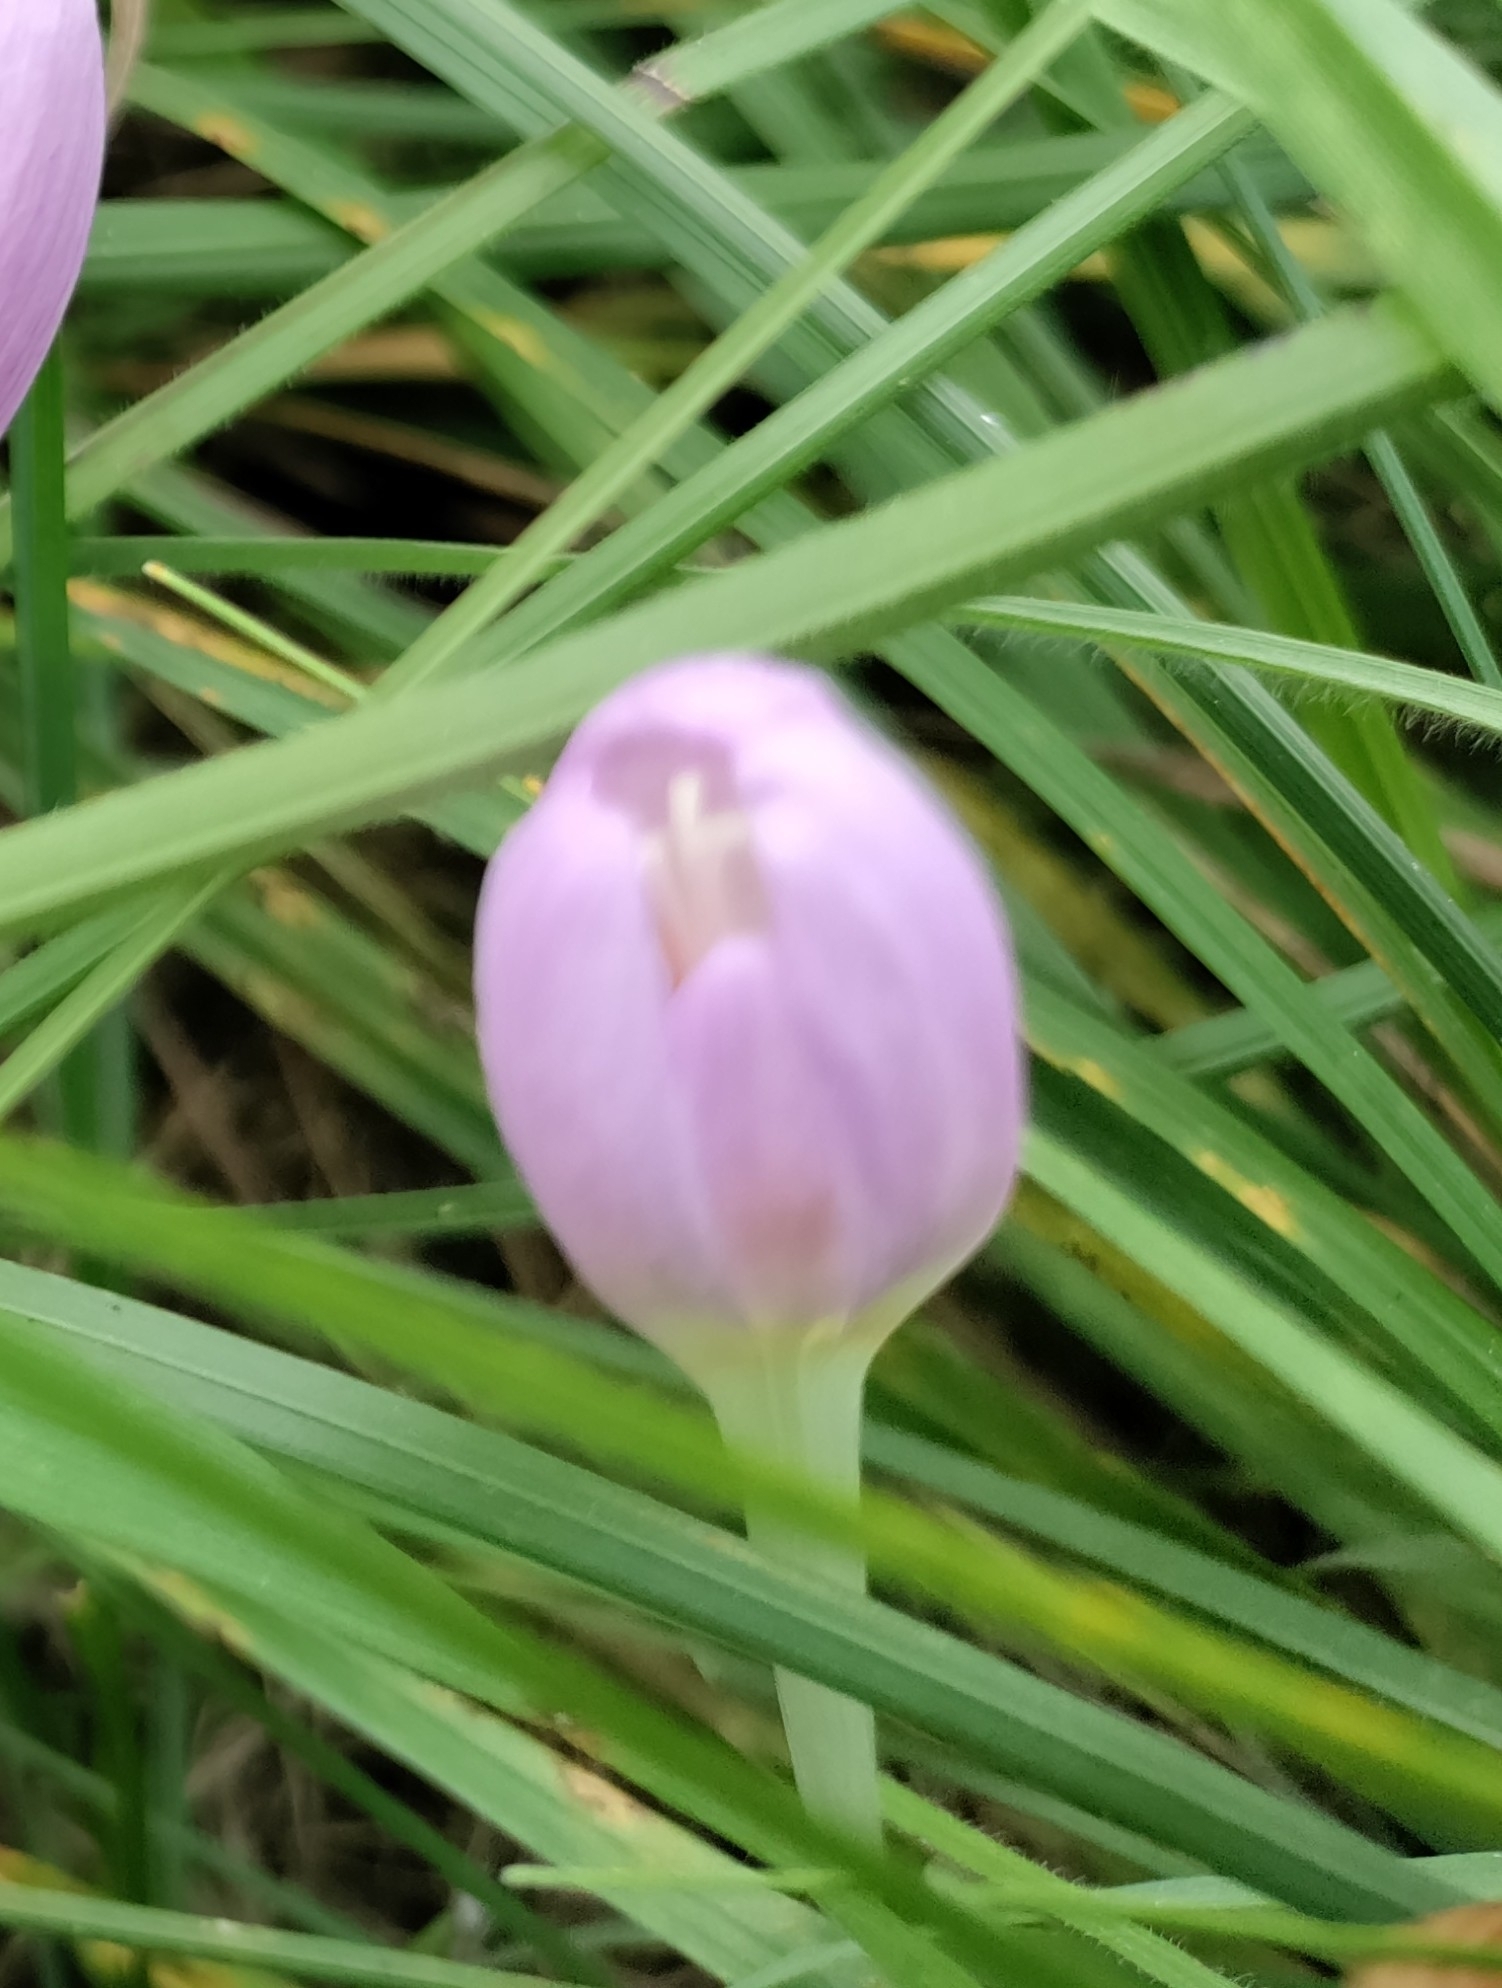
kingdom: Plantae
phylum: Tracheophyta
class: Liliopsida
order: Liliales
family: Colchicaceae
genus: Colchicum
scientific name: Colchicum autumnale
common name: Autumn crocus
